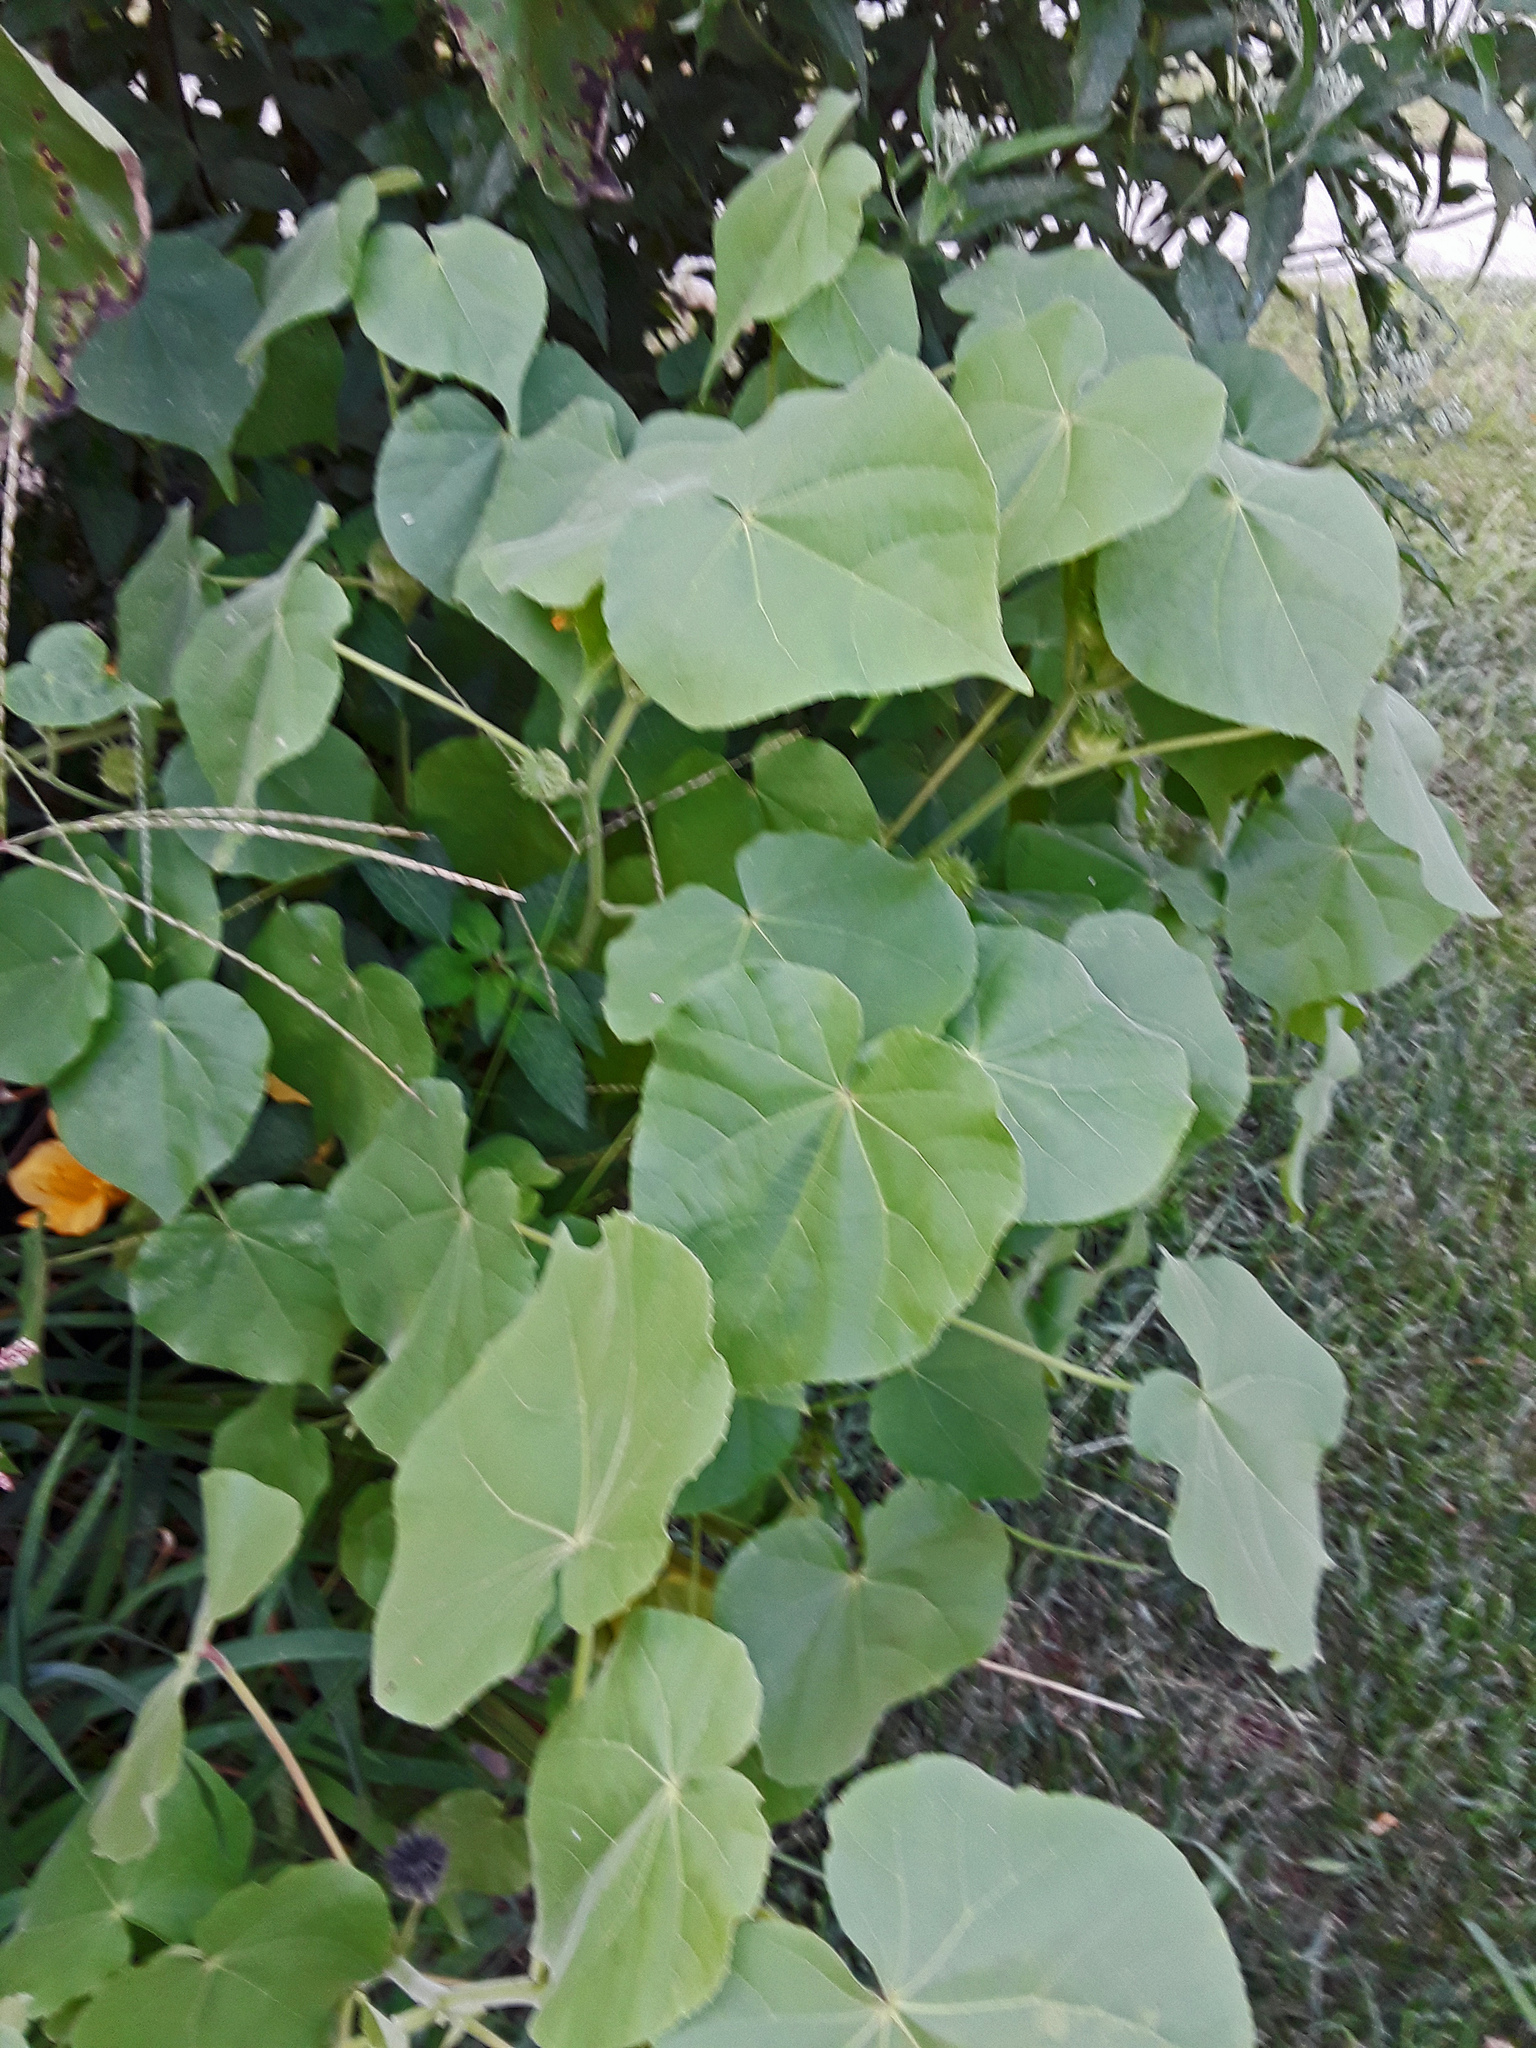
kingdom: Plantae
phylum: Tracheophyta
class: Magnoliopsida
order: Malvales
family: Malvaceae
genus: Abutilon
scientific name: Abutilon theophrasti
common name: Velvetleaf
